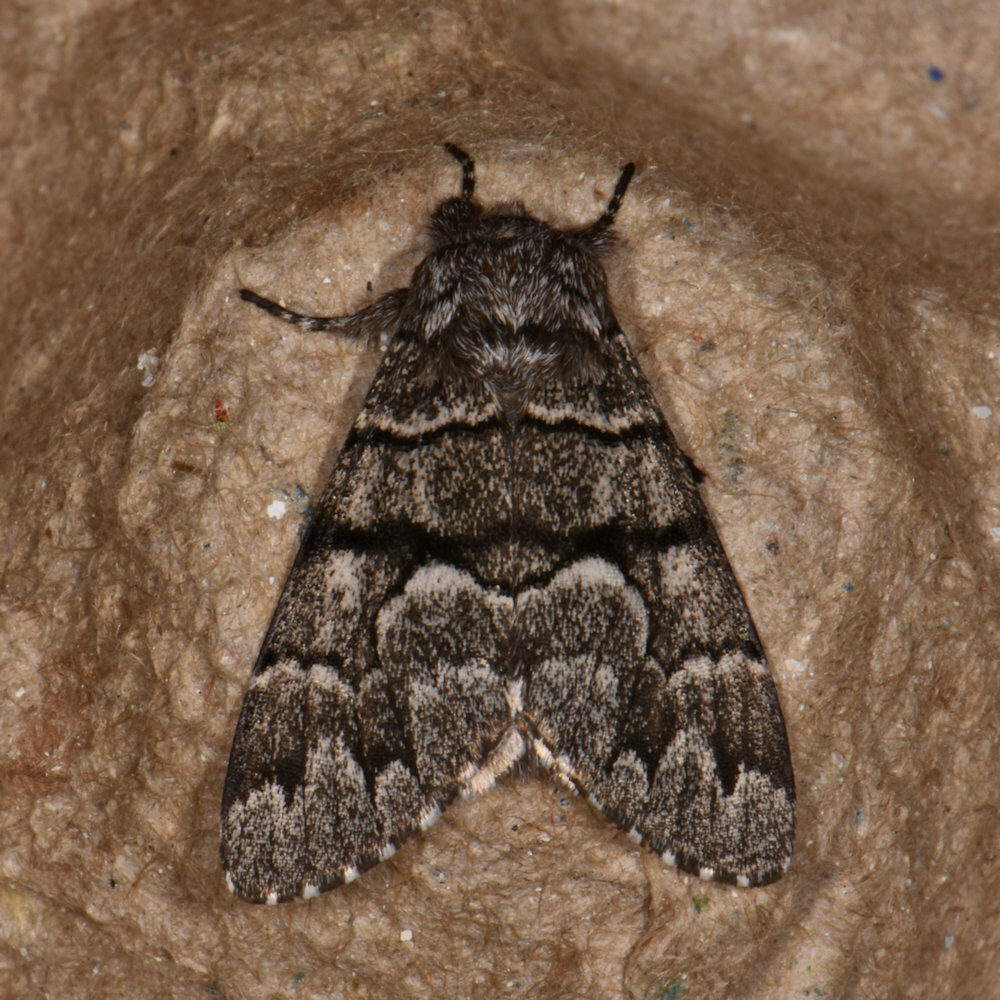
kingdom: Animalia
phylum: Arthropoda
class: Insecta
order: Lepidoptera
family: Noctuidae
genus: Panthea
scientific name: Panthea furcilla
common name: Eastern panthea moth
